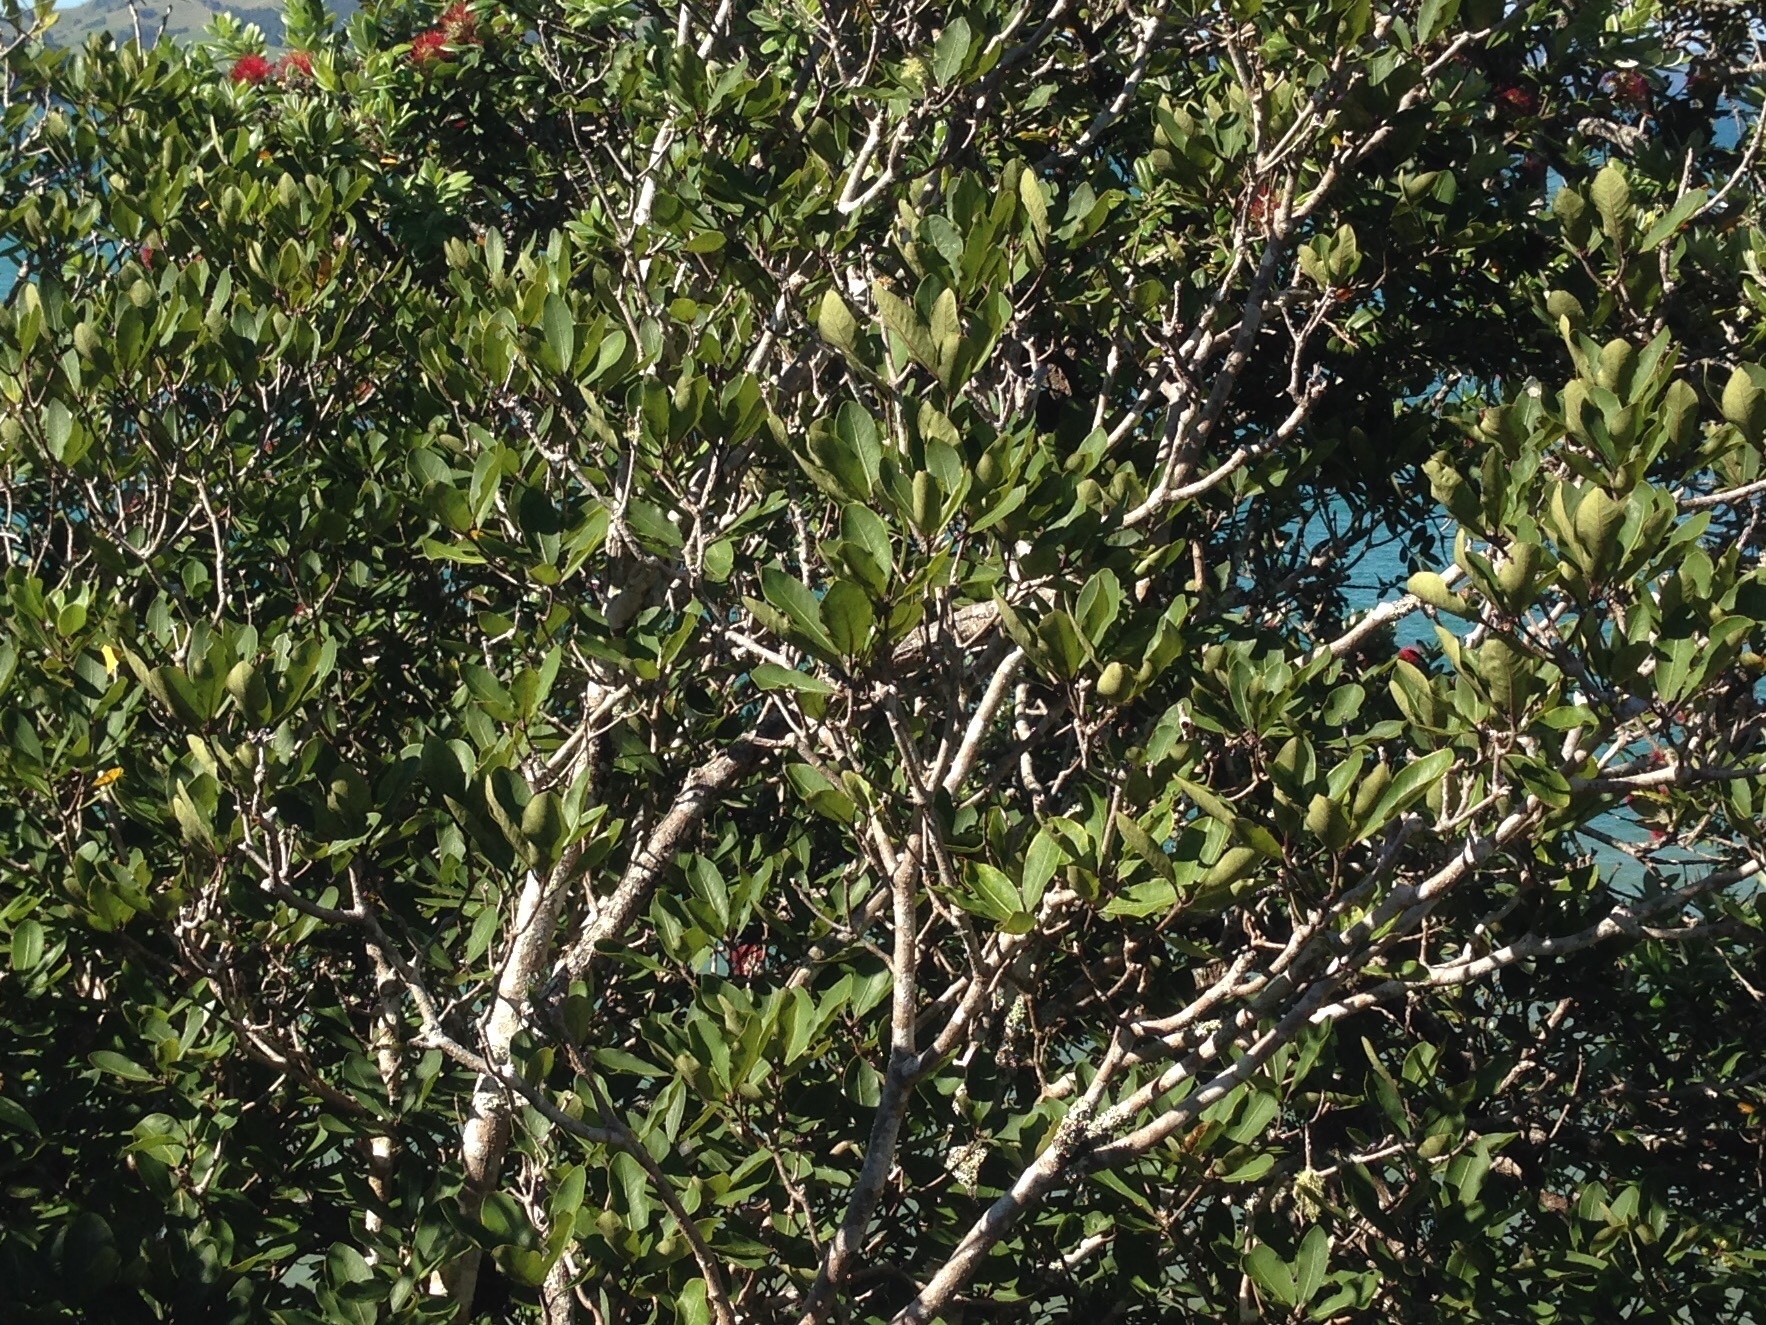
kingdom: Plantae
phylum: Tracheophyta
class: Magnoliopsida
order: Apiales
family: Pittosporaceae
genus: Pittosporum
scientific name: Pittosporum umbellatum
